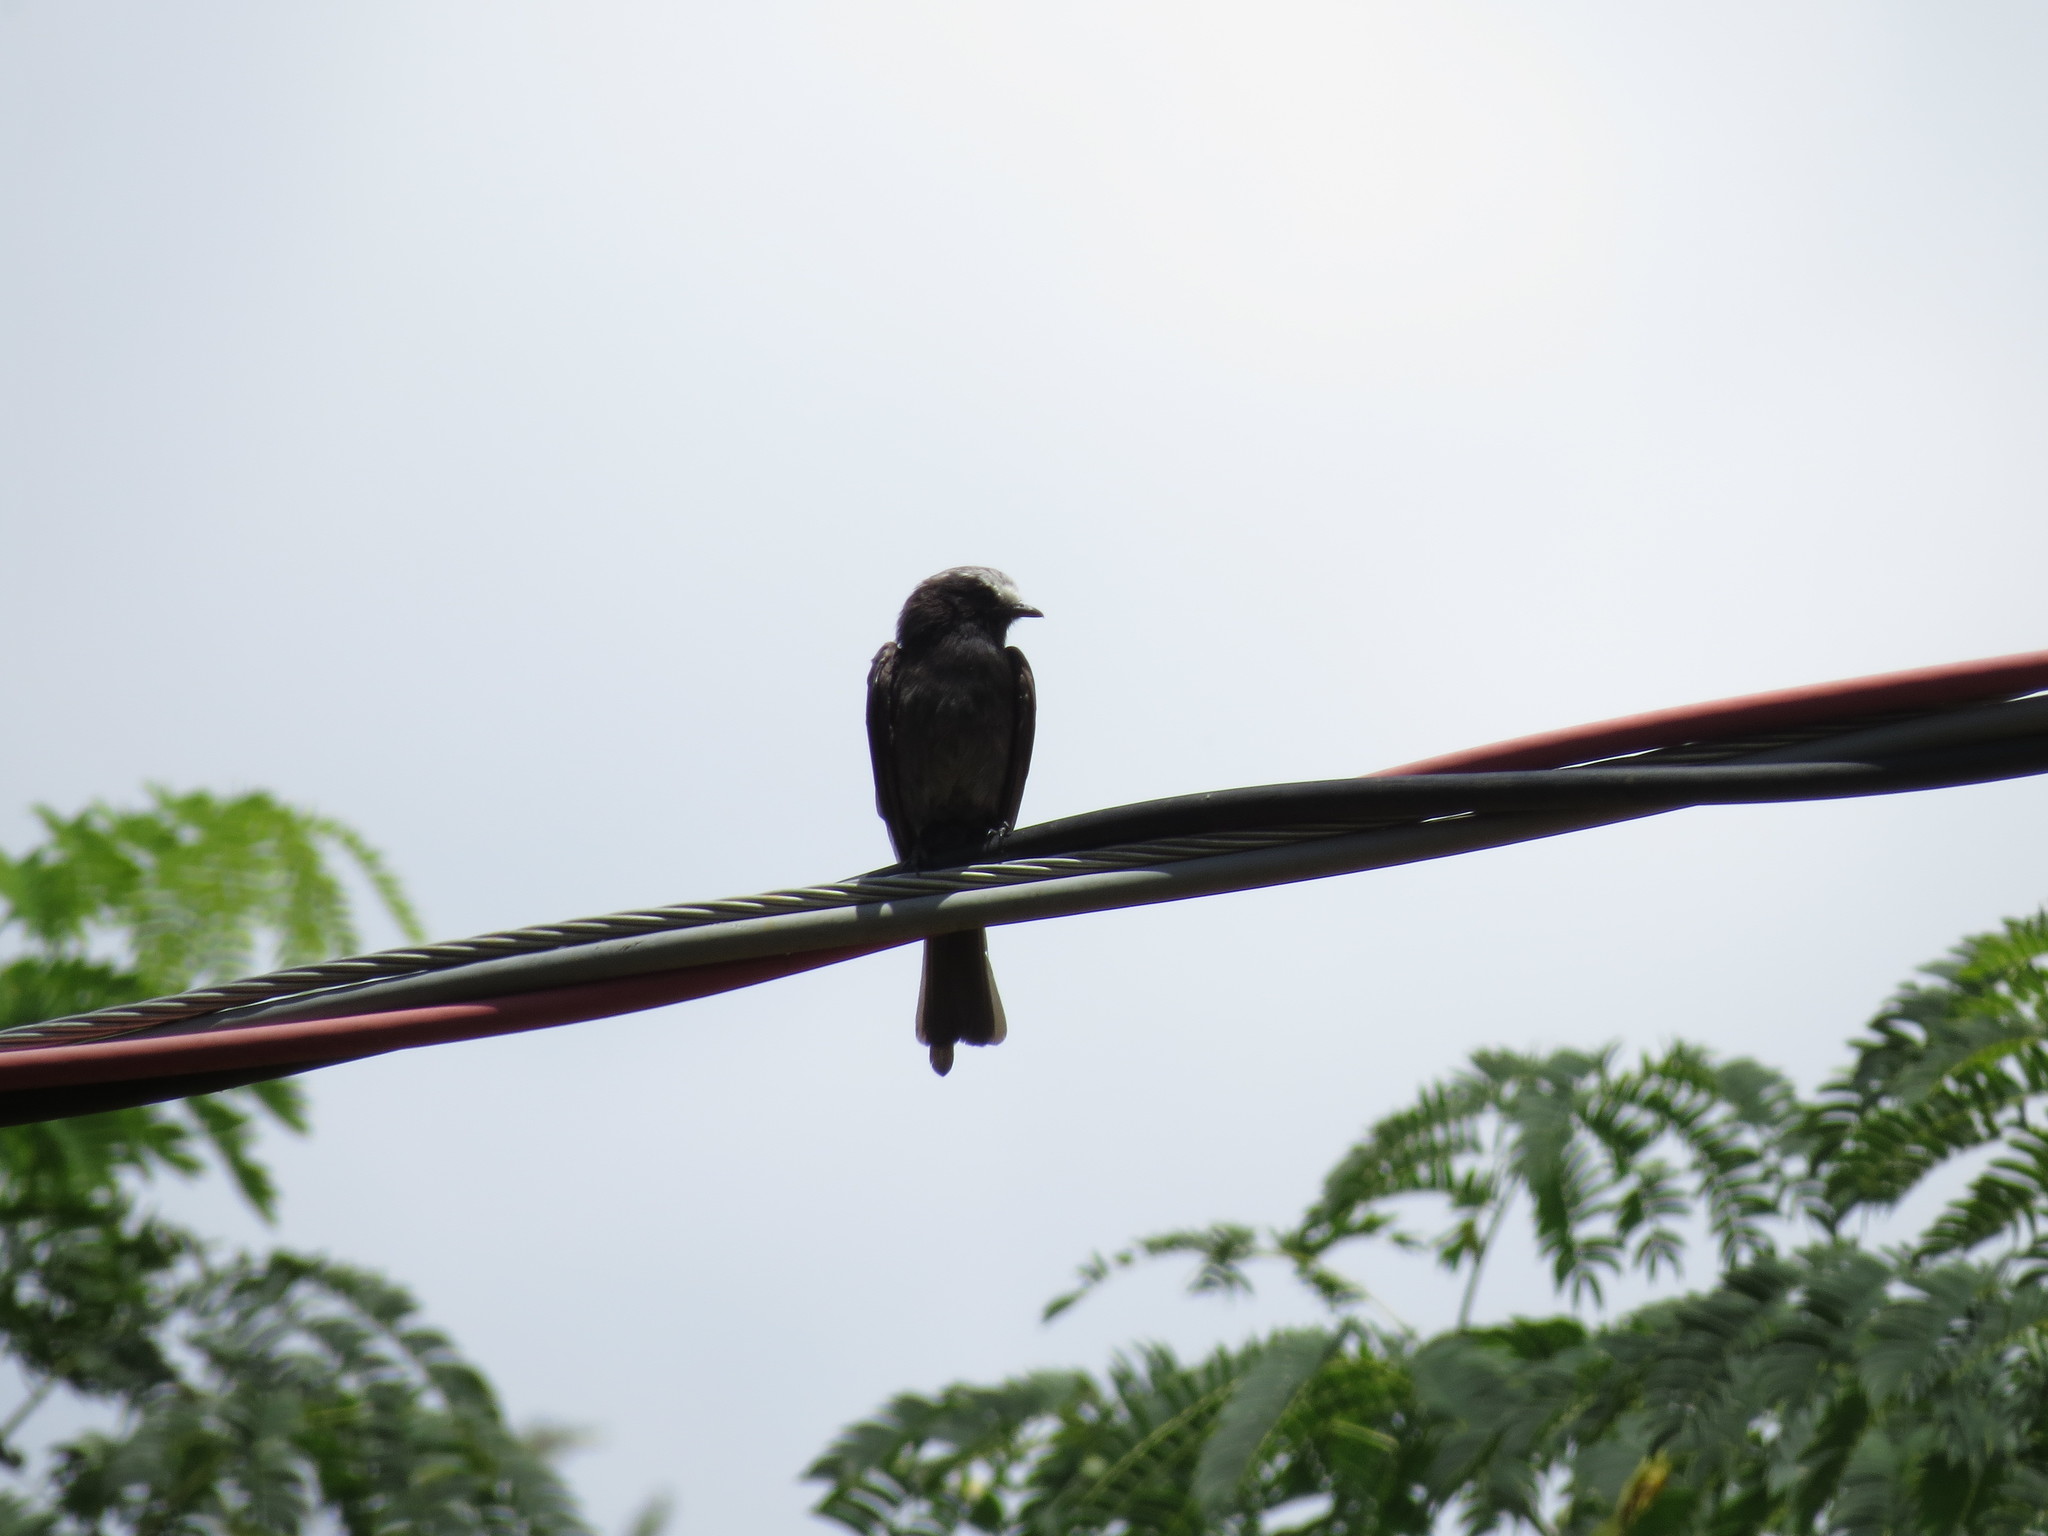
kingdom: Animalia
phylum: Chordata
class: Aves
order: Passeriformes
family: Tyrannidae
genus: Colonia
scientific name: Colonia colonus
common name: Long-tailed tyrant
